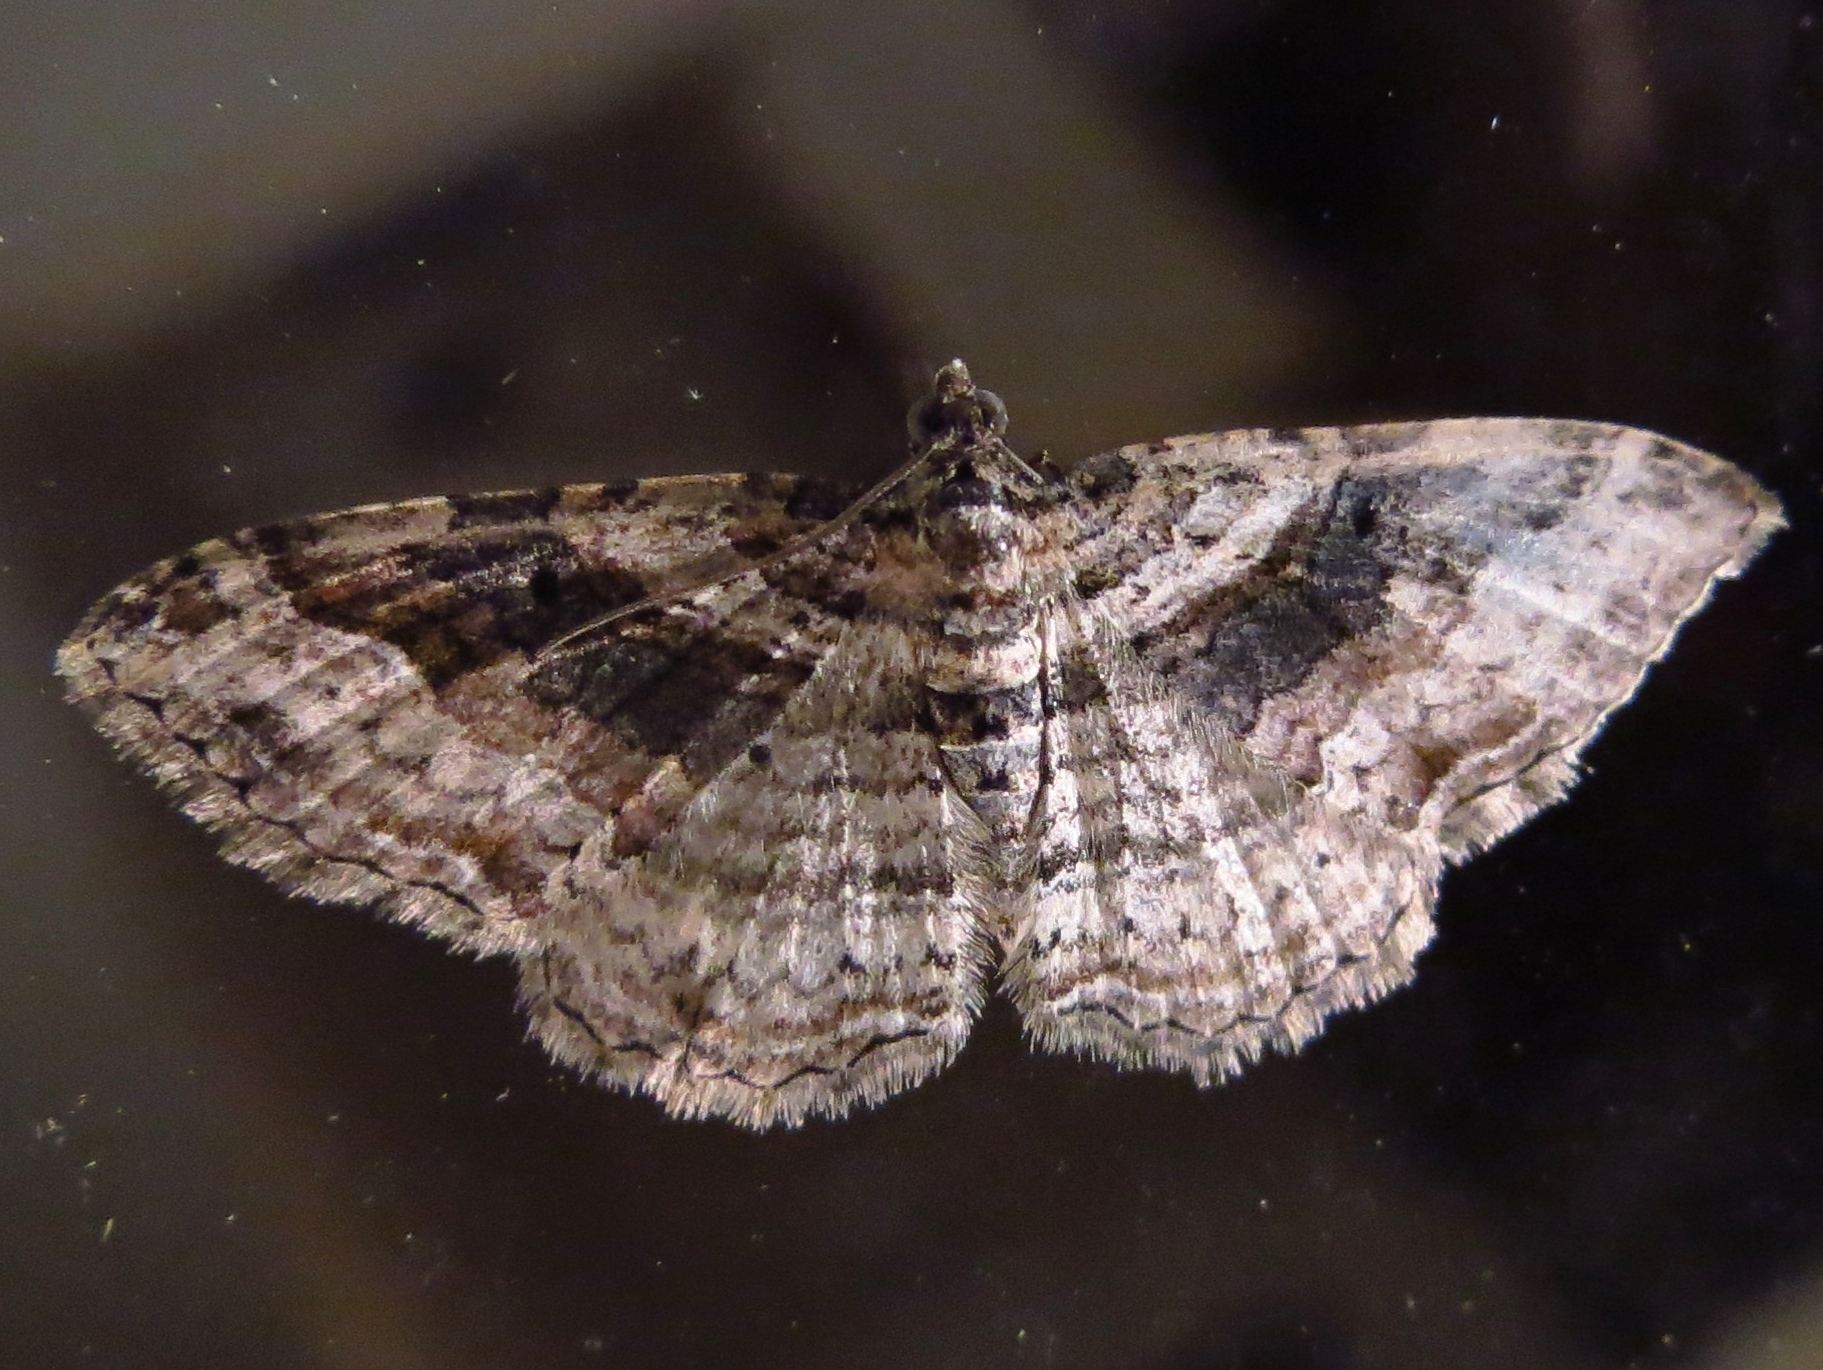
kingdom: Animalia
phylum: Arthropoda
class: Insecta
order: Lepidoptera
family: Geometridae
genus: Costaconvexa
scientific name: Costaconvexa centrostrigaria
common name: Bent-line carpet
